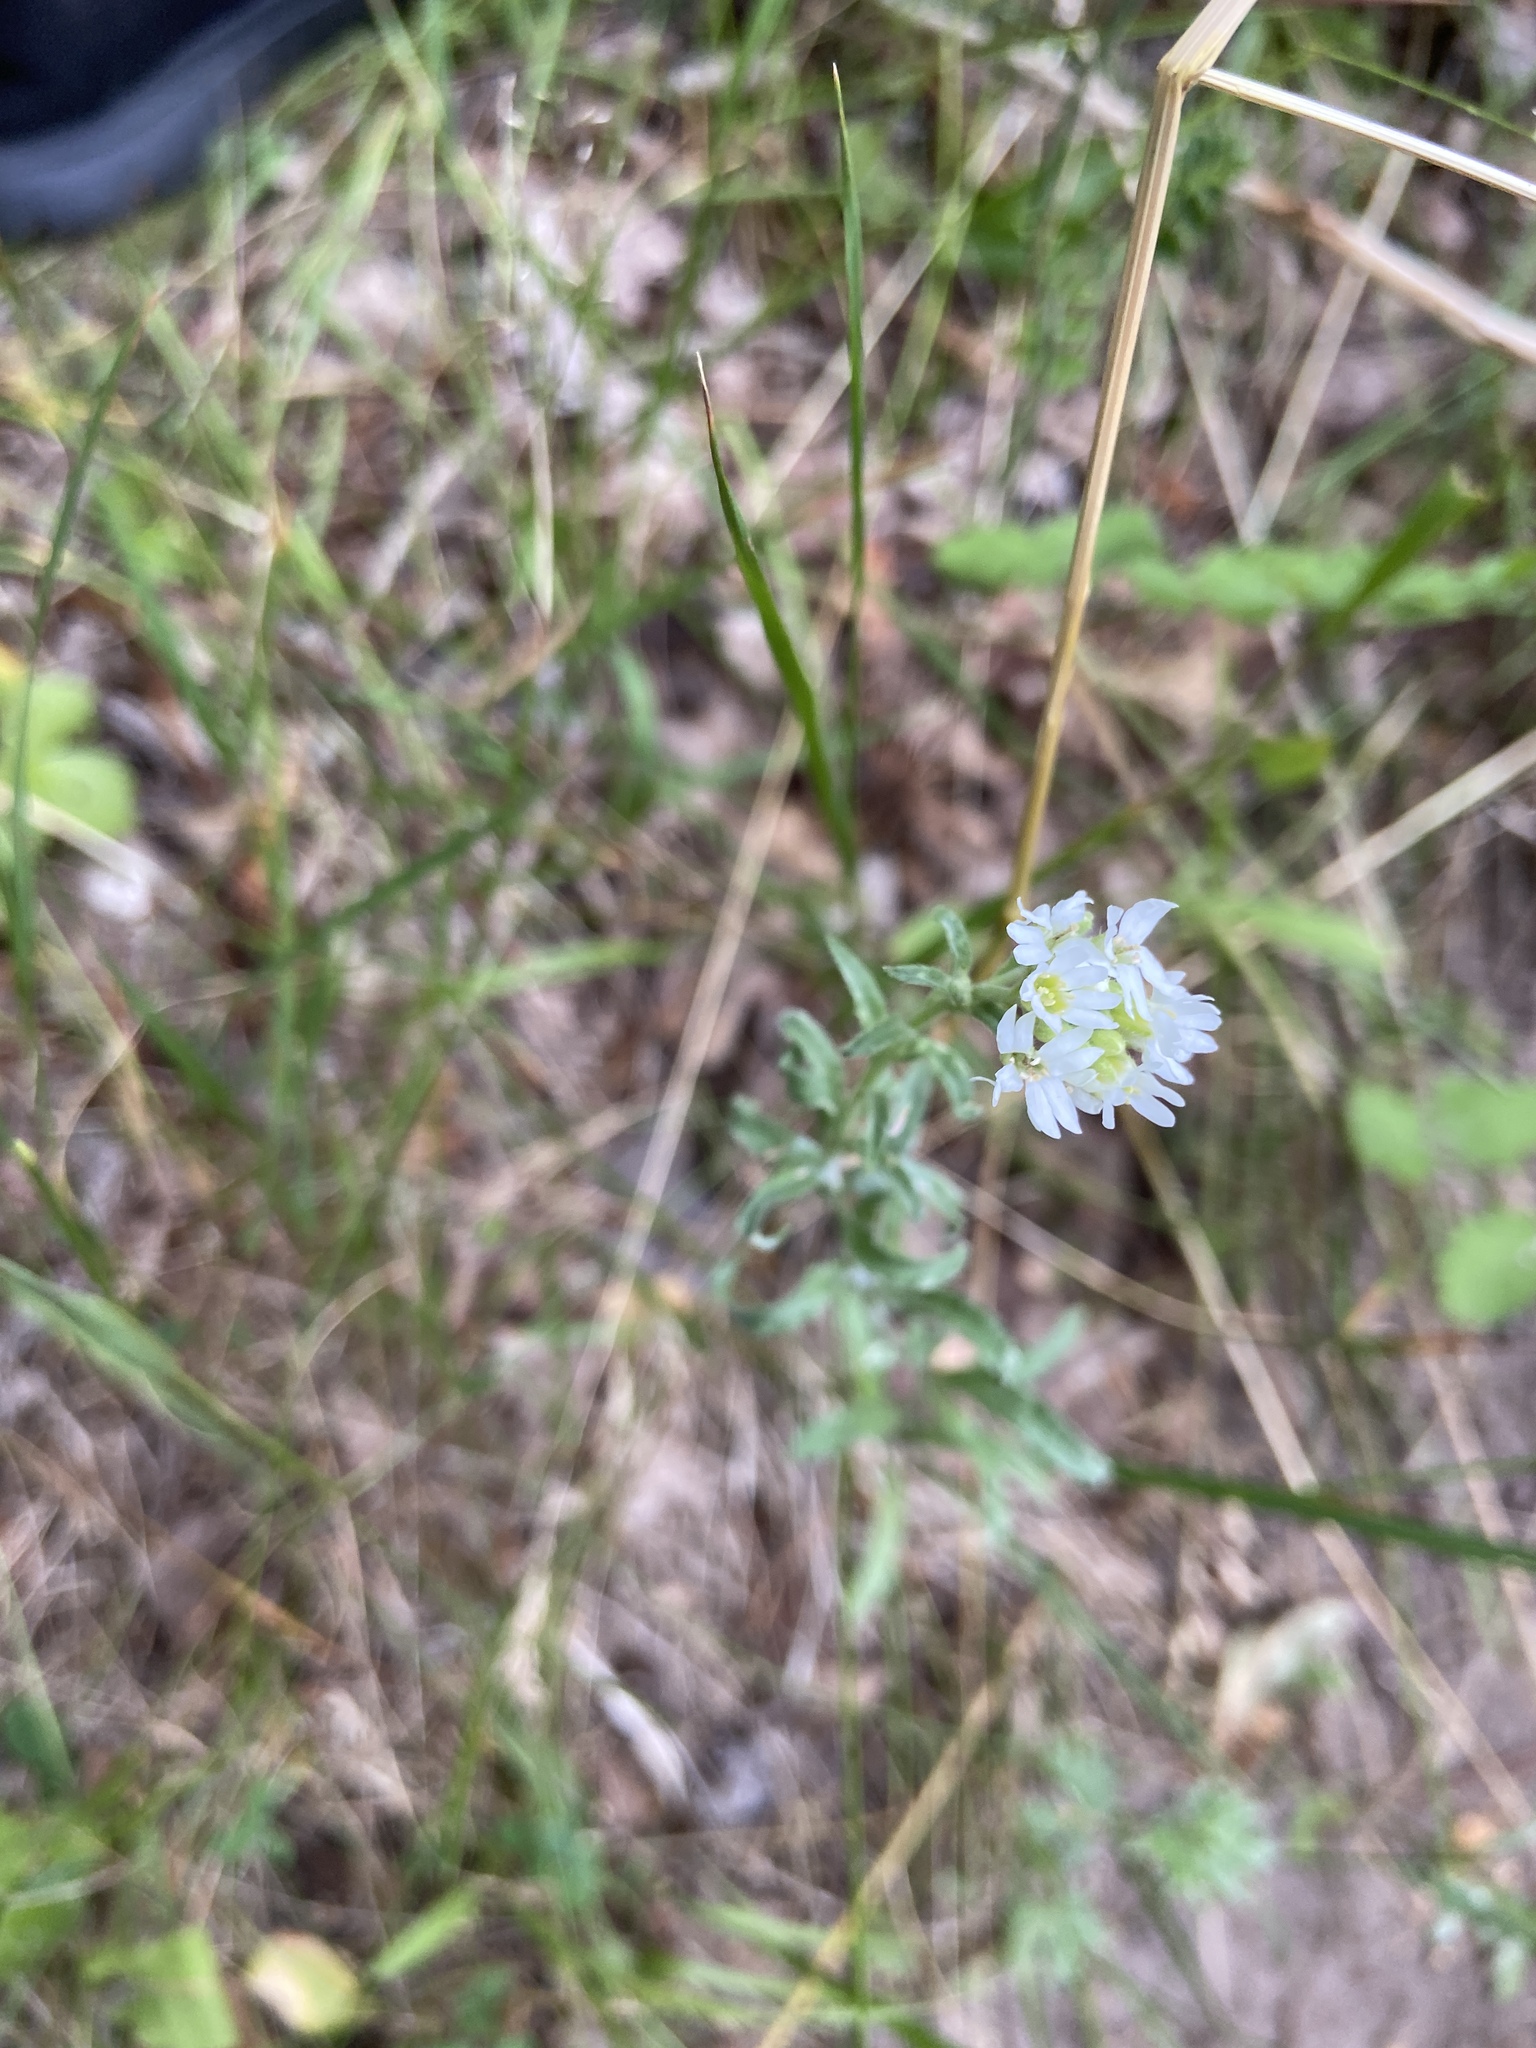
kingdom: Plantae
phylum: Tracheophyta
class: Magnoliopsida
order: Brassicales
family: Brassicaceae
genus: Berteroa
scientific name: Berteroa incana
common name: Hoary alison
